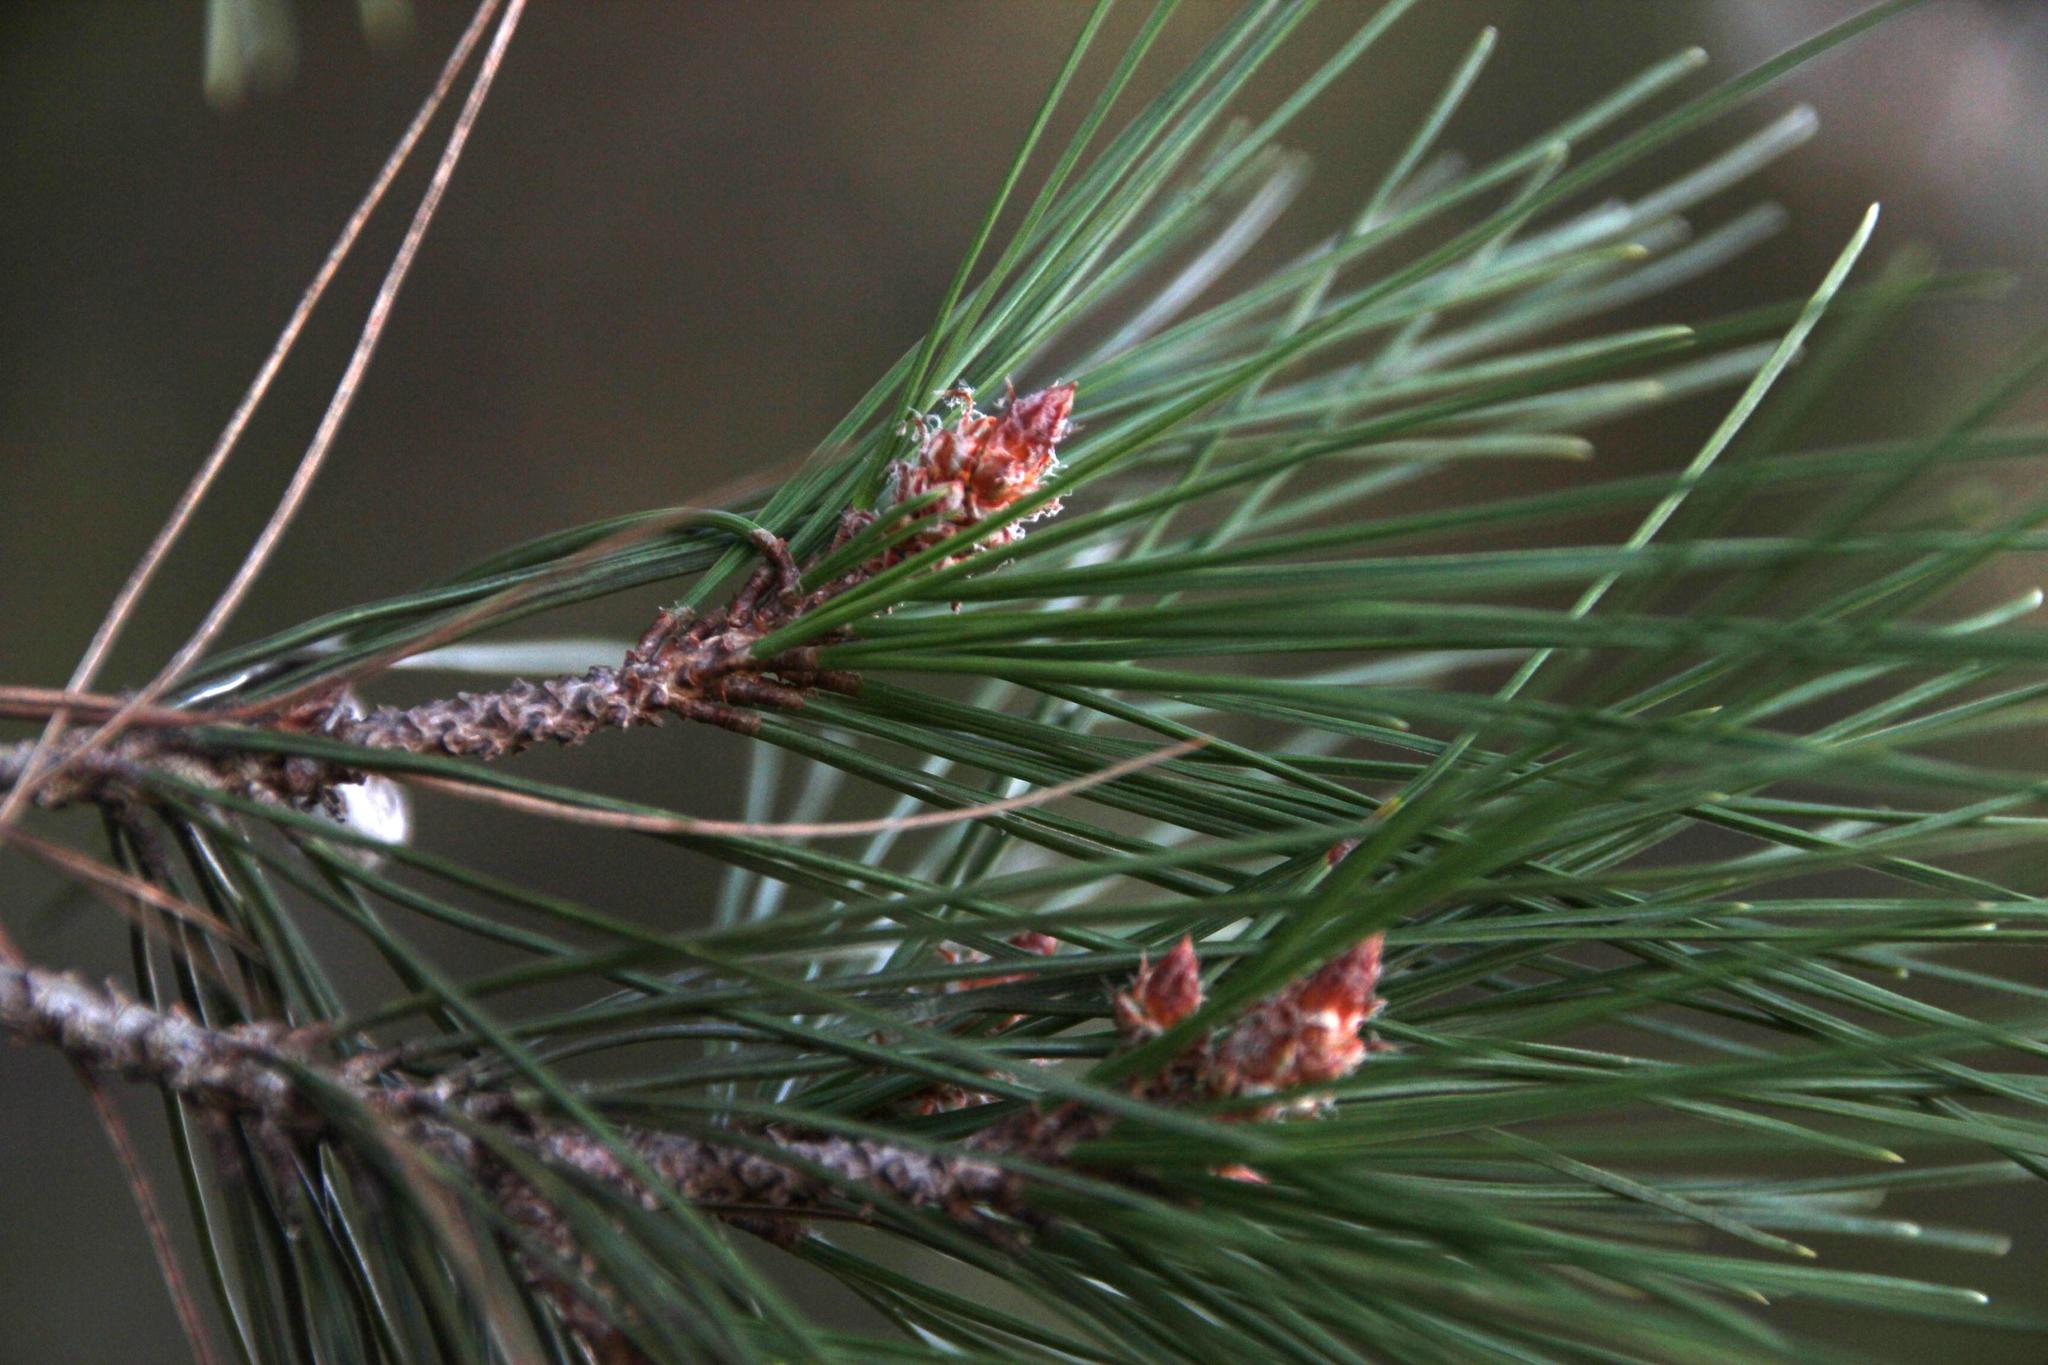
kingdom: Plantae
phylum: Tracheophyta
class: Pinopsida
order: Pinales
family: Pinaceae
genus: Pinus
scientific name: Pinus pinaster
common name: Maritime pine
